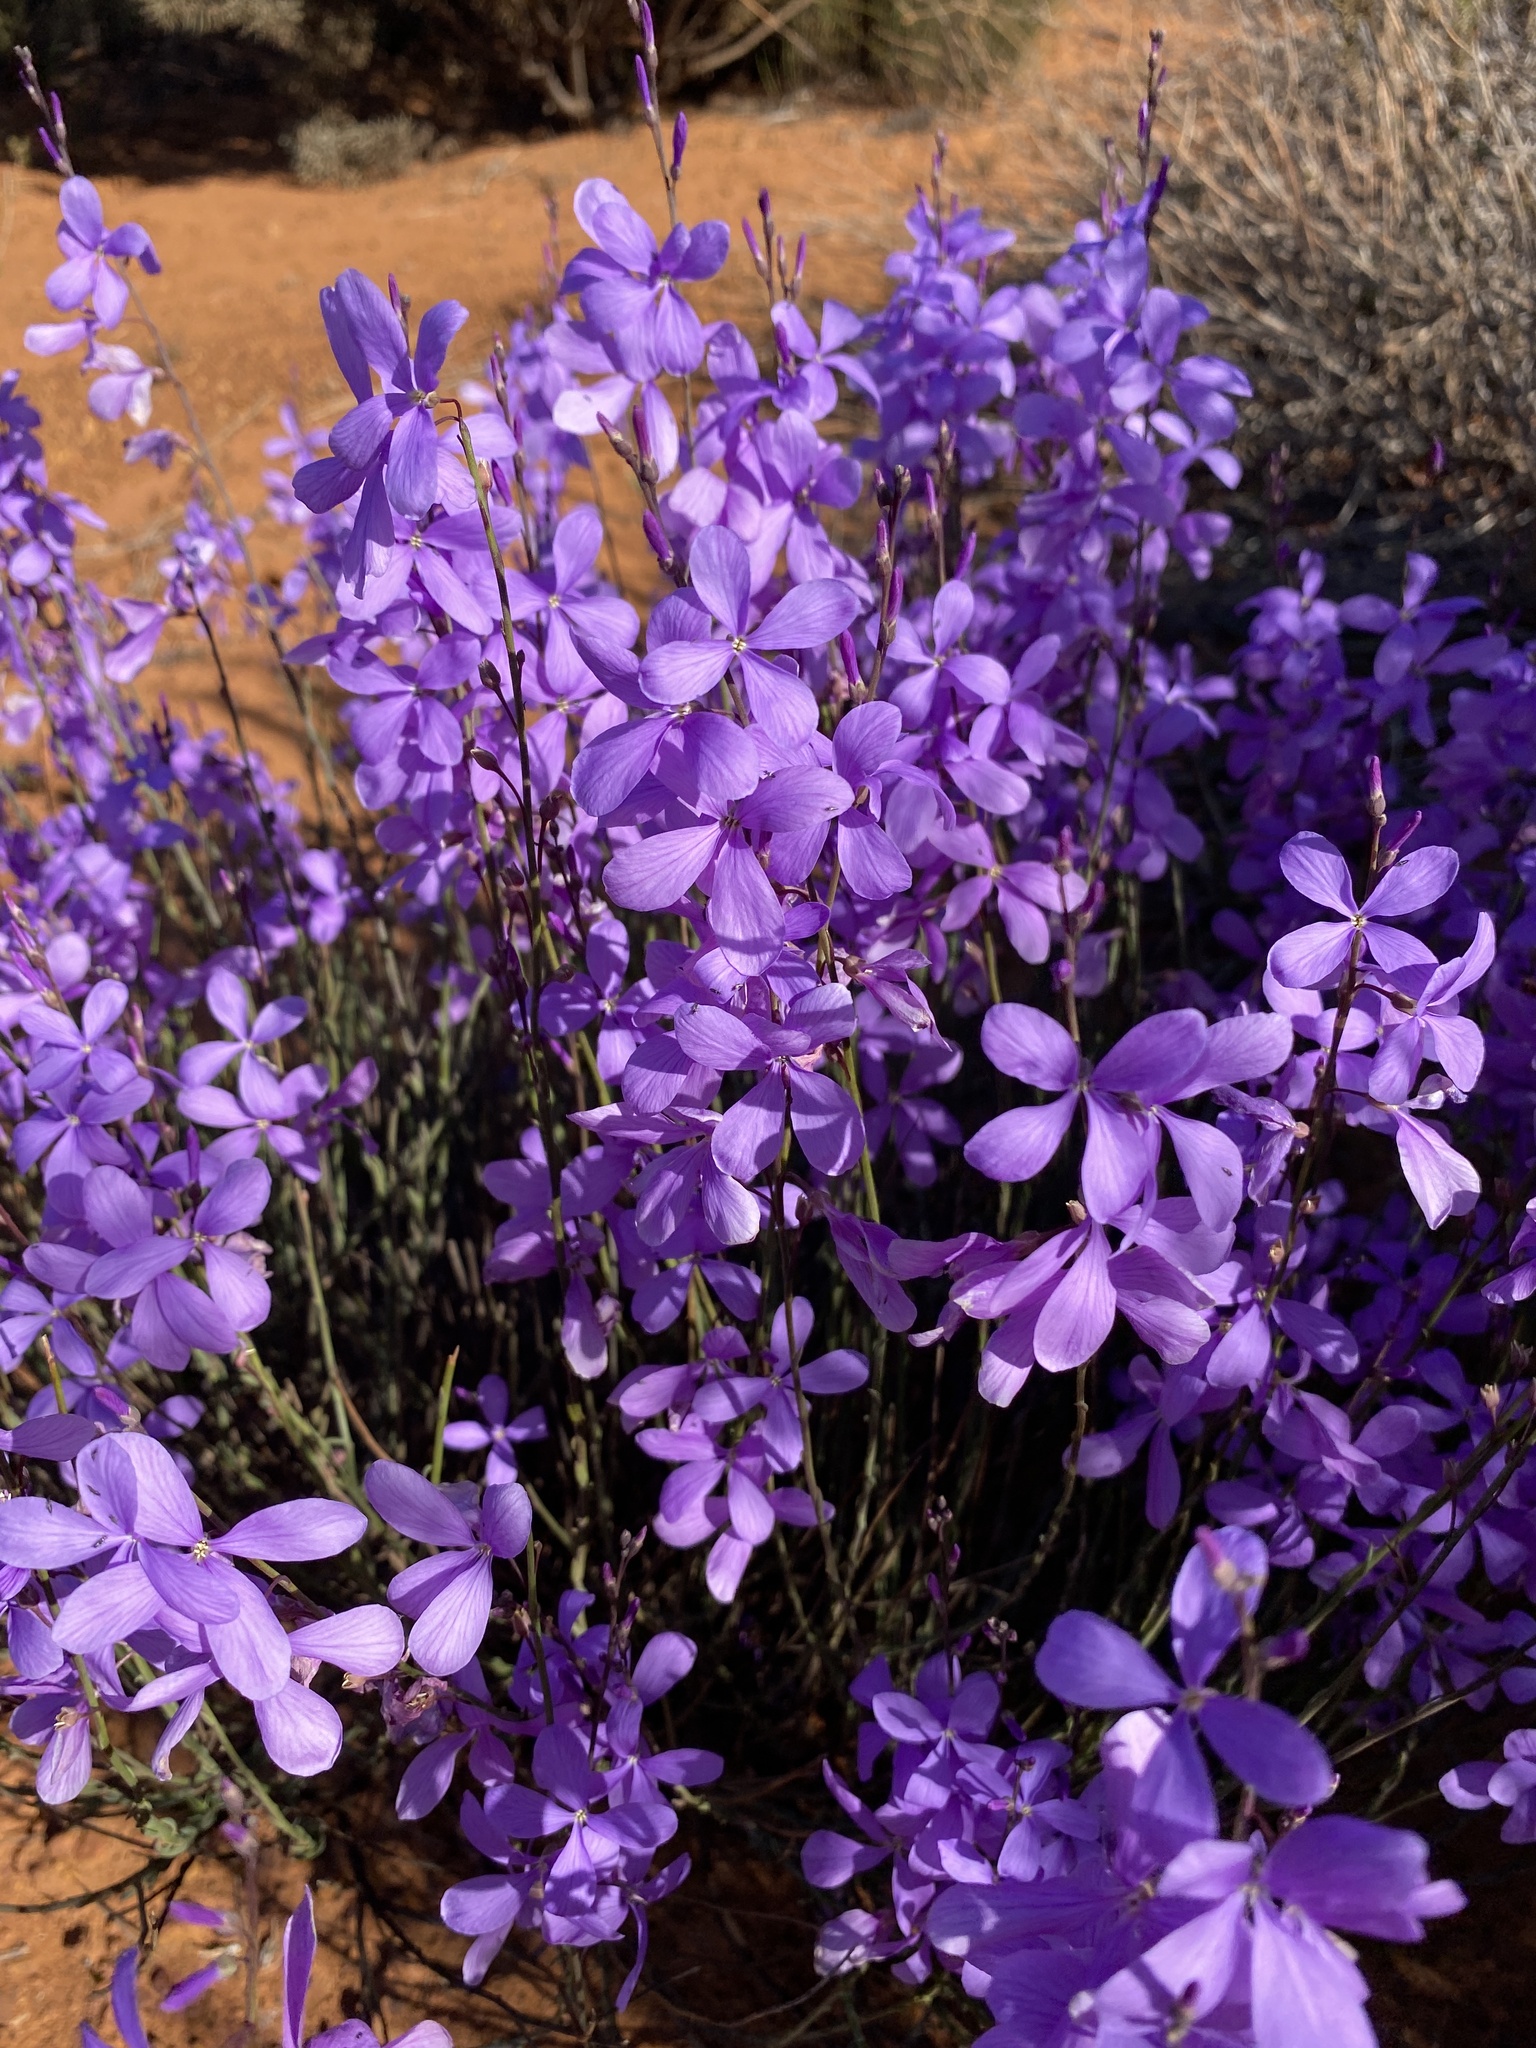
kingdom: Plantae
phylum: Tracheophyta
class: Magnoliopsida
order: Brassicales
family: Brassicaceae
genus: Heliophila
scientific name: Heliophila juncea
